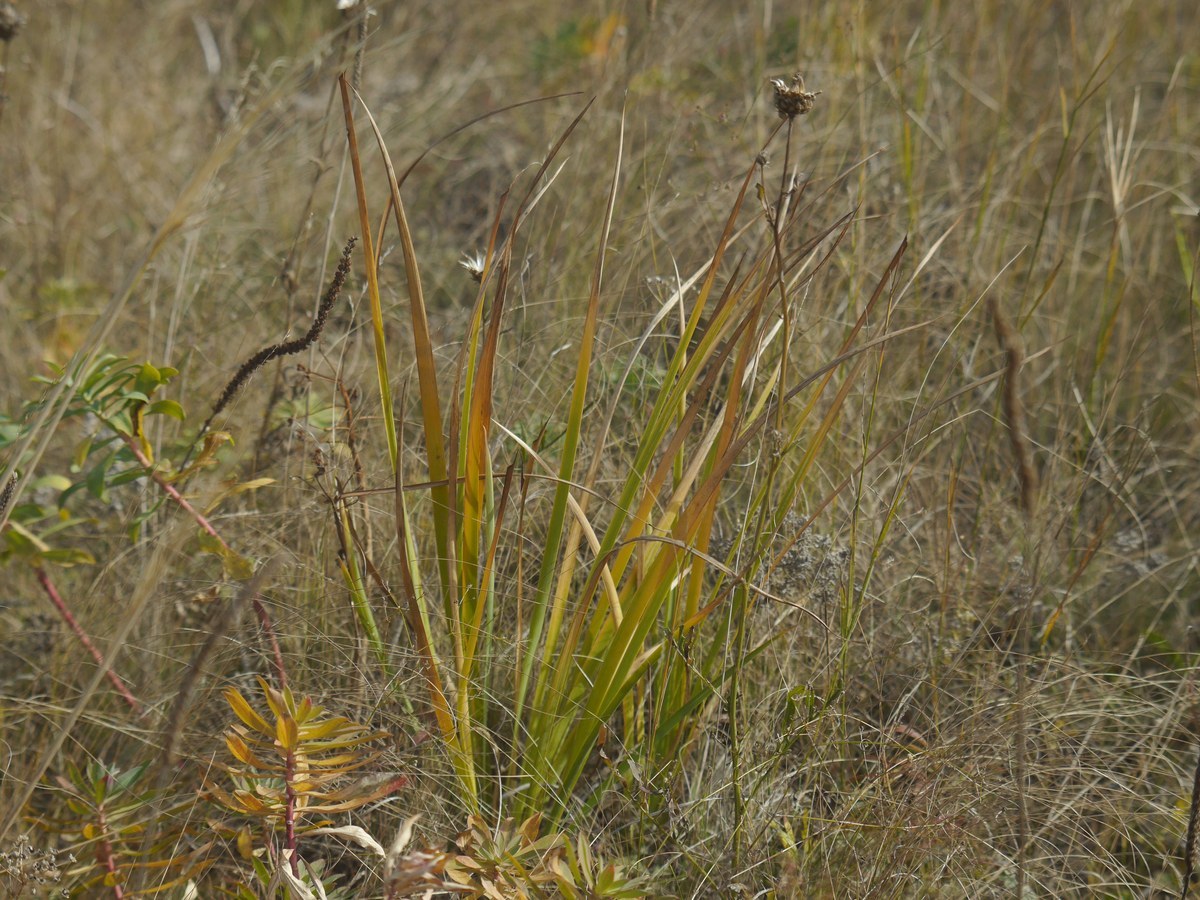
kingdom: Plantae
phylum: Tracheophyta
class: Liliopsida
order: Asparagales
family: Iridaceae
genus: Iris
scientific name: Iris halophila
